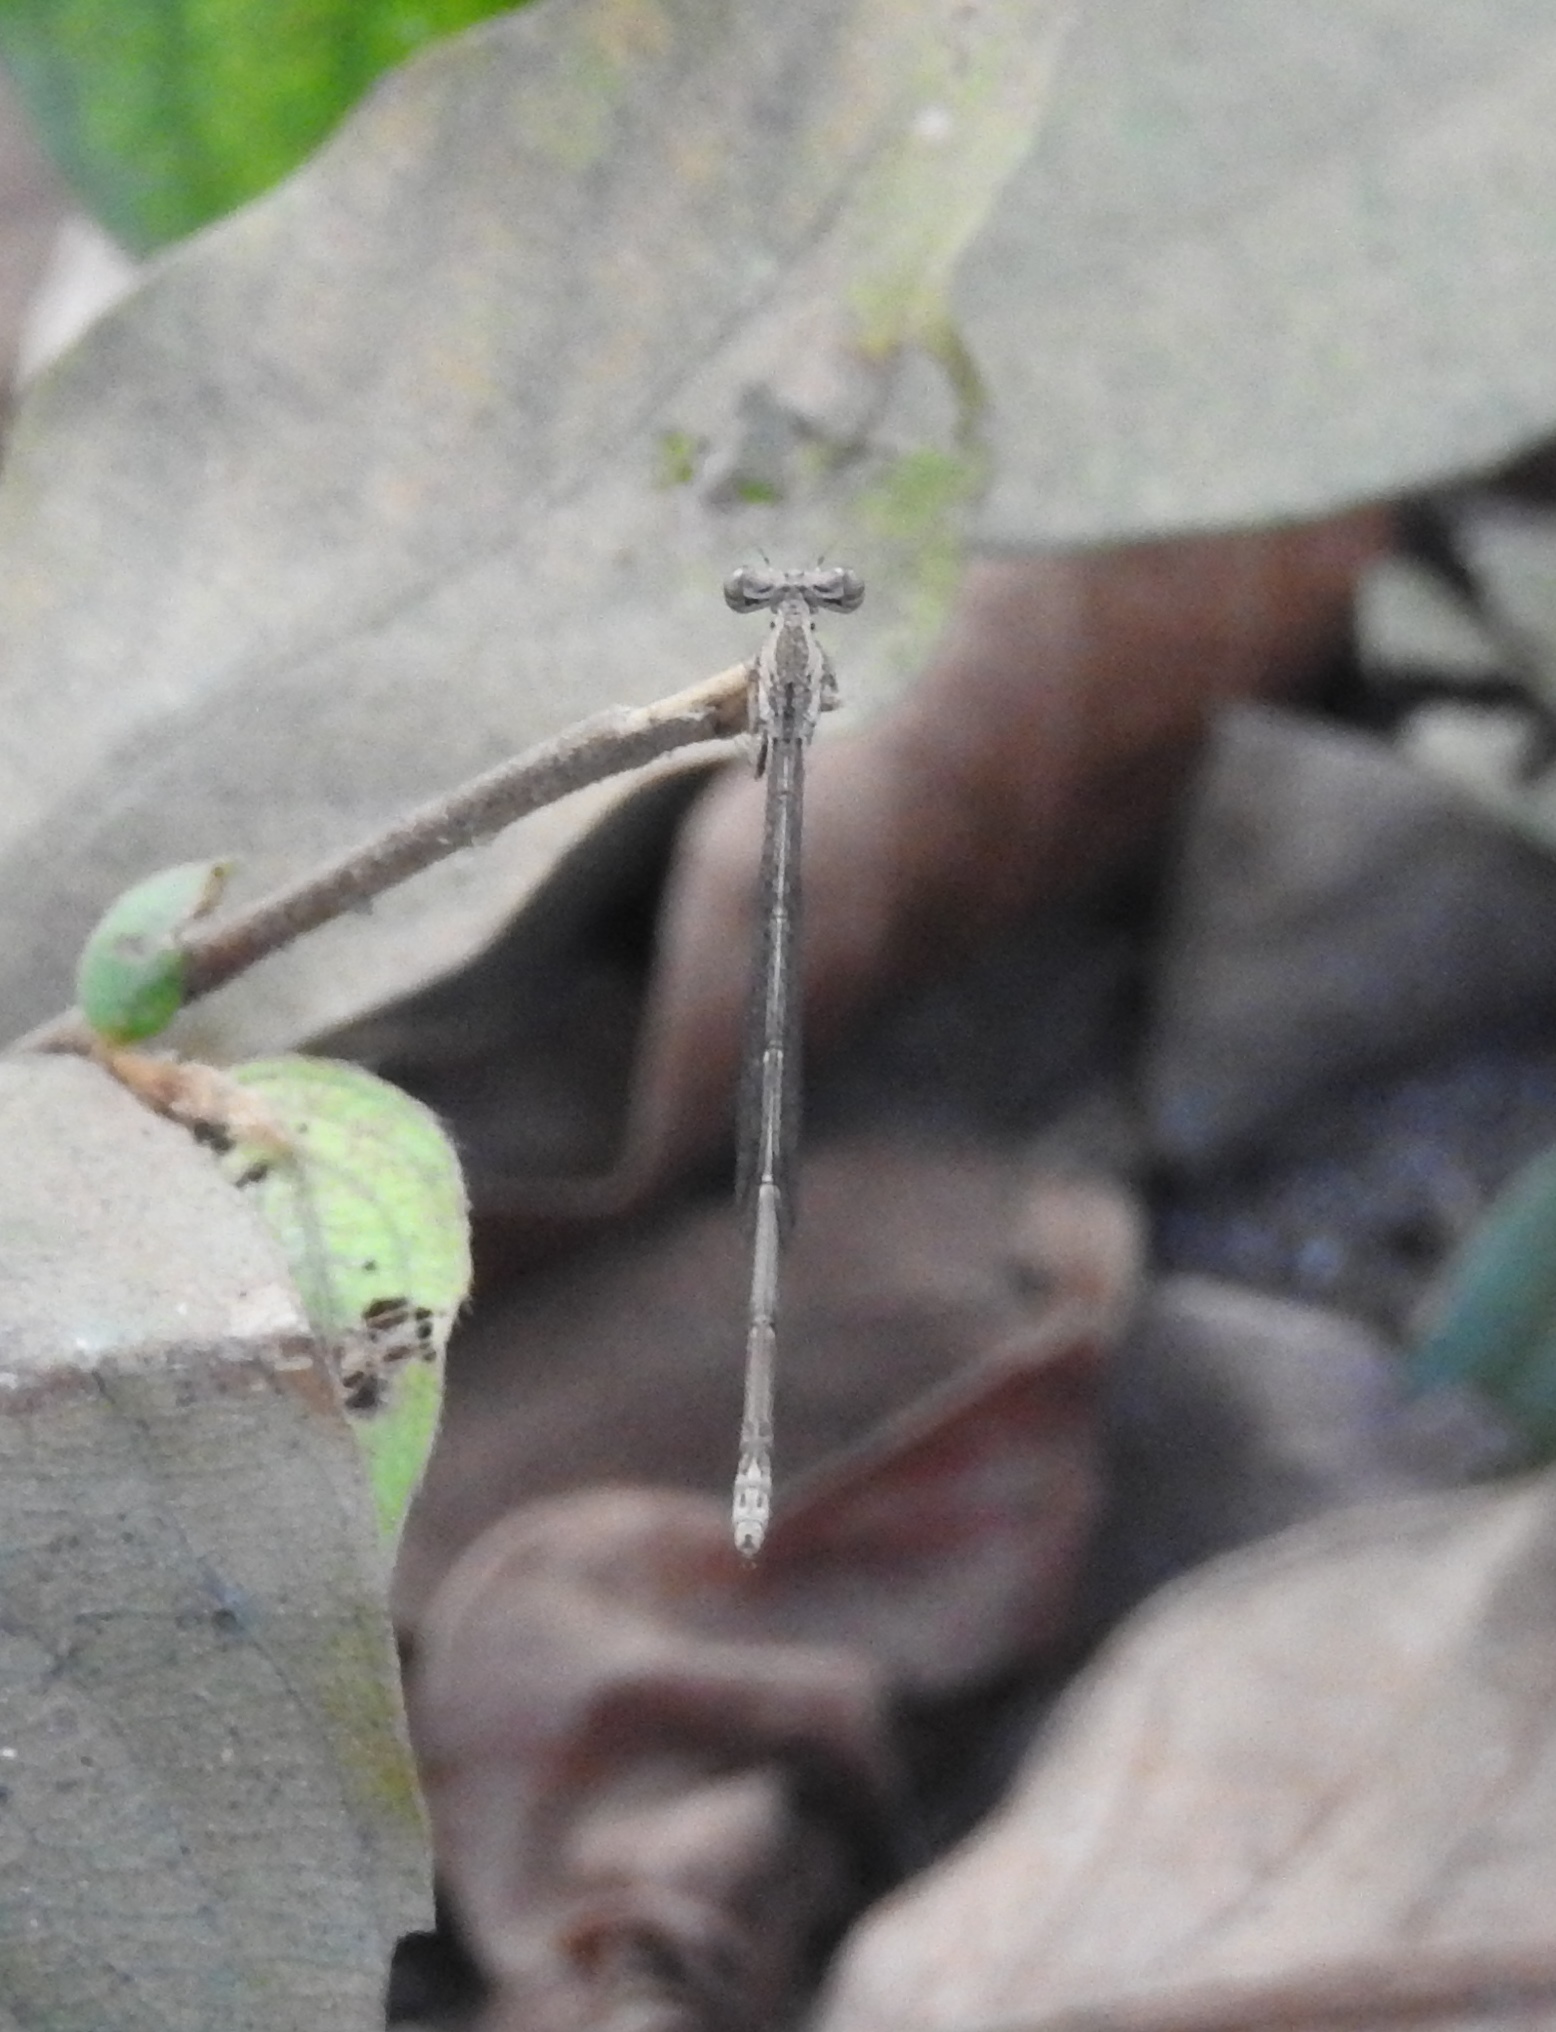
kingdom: Animalia
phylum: Arthropoda
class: Insecta
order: Odonata
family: Platycnemididae
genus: Copera
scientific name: Copera marginipes
